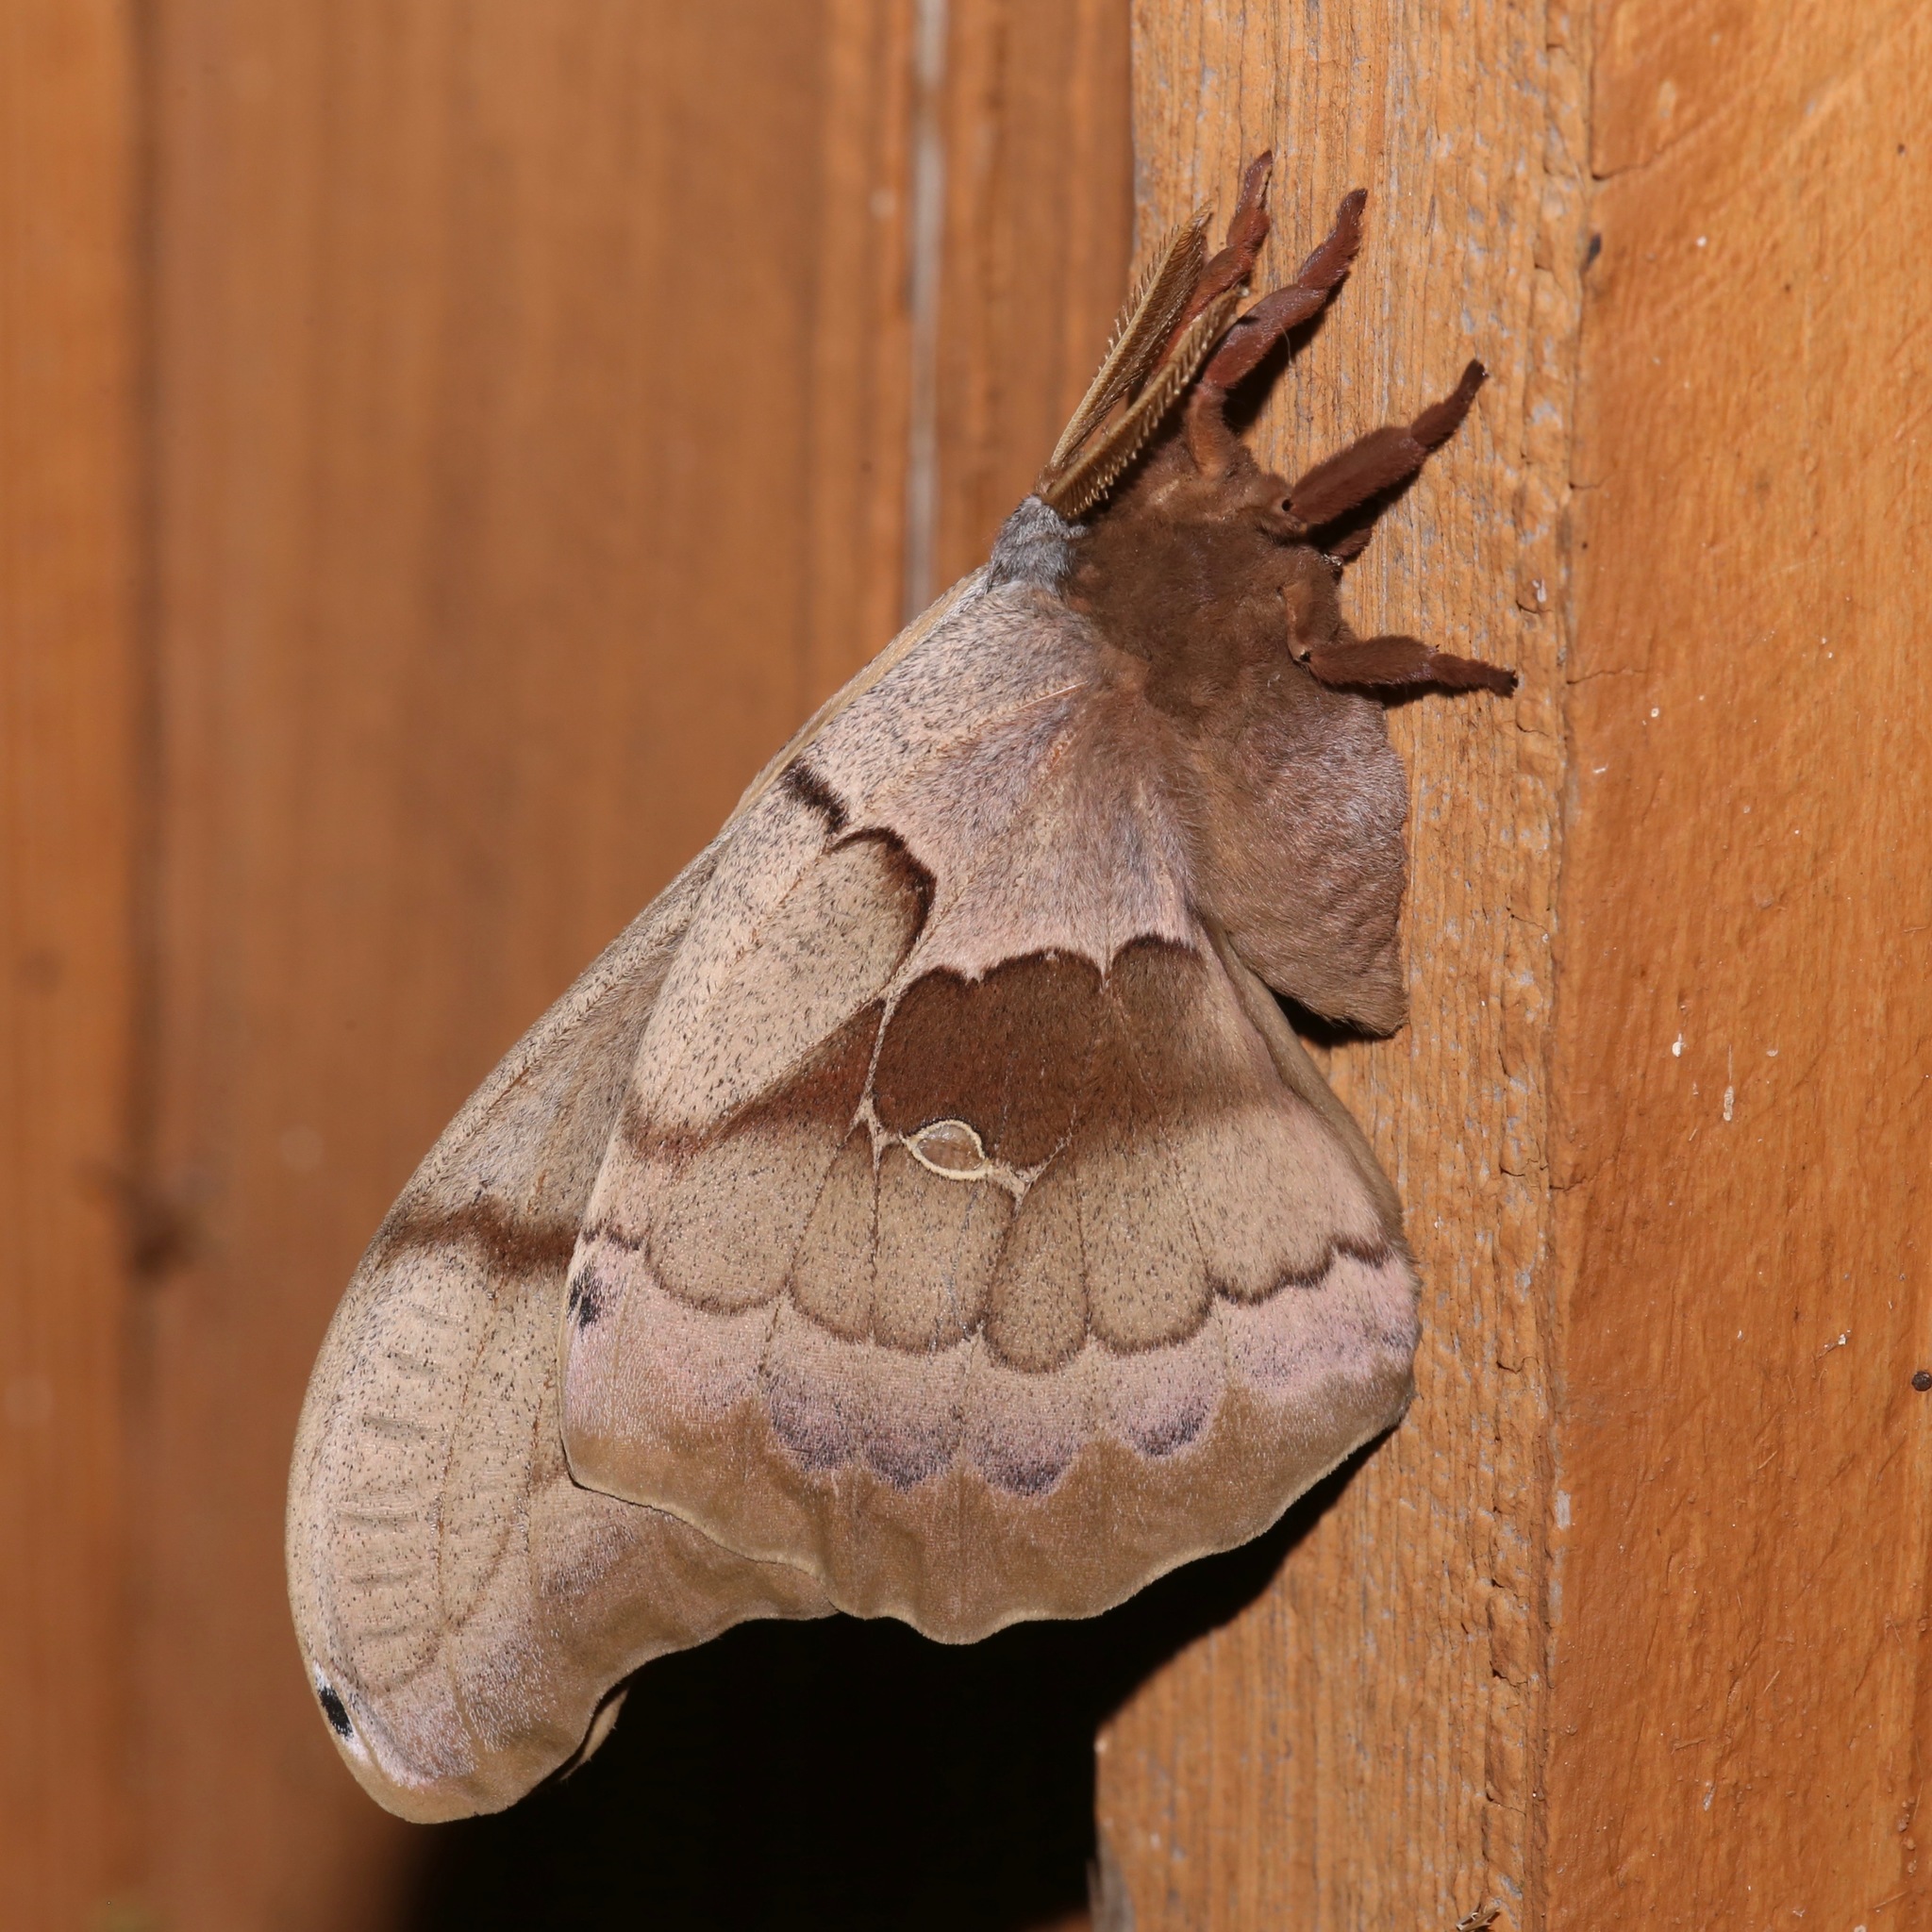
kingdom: Animalia
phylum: Arthropoda
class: Insecta
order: Lepidoptera
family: Saturniidae
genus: Antheraea
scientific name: Antheraea polyphemus
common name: Polyphemus moth
